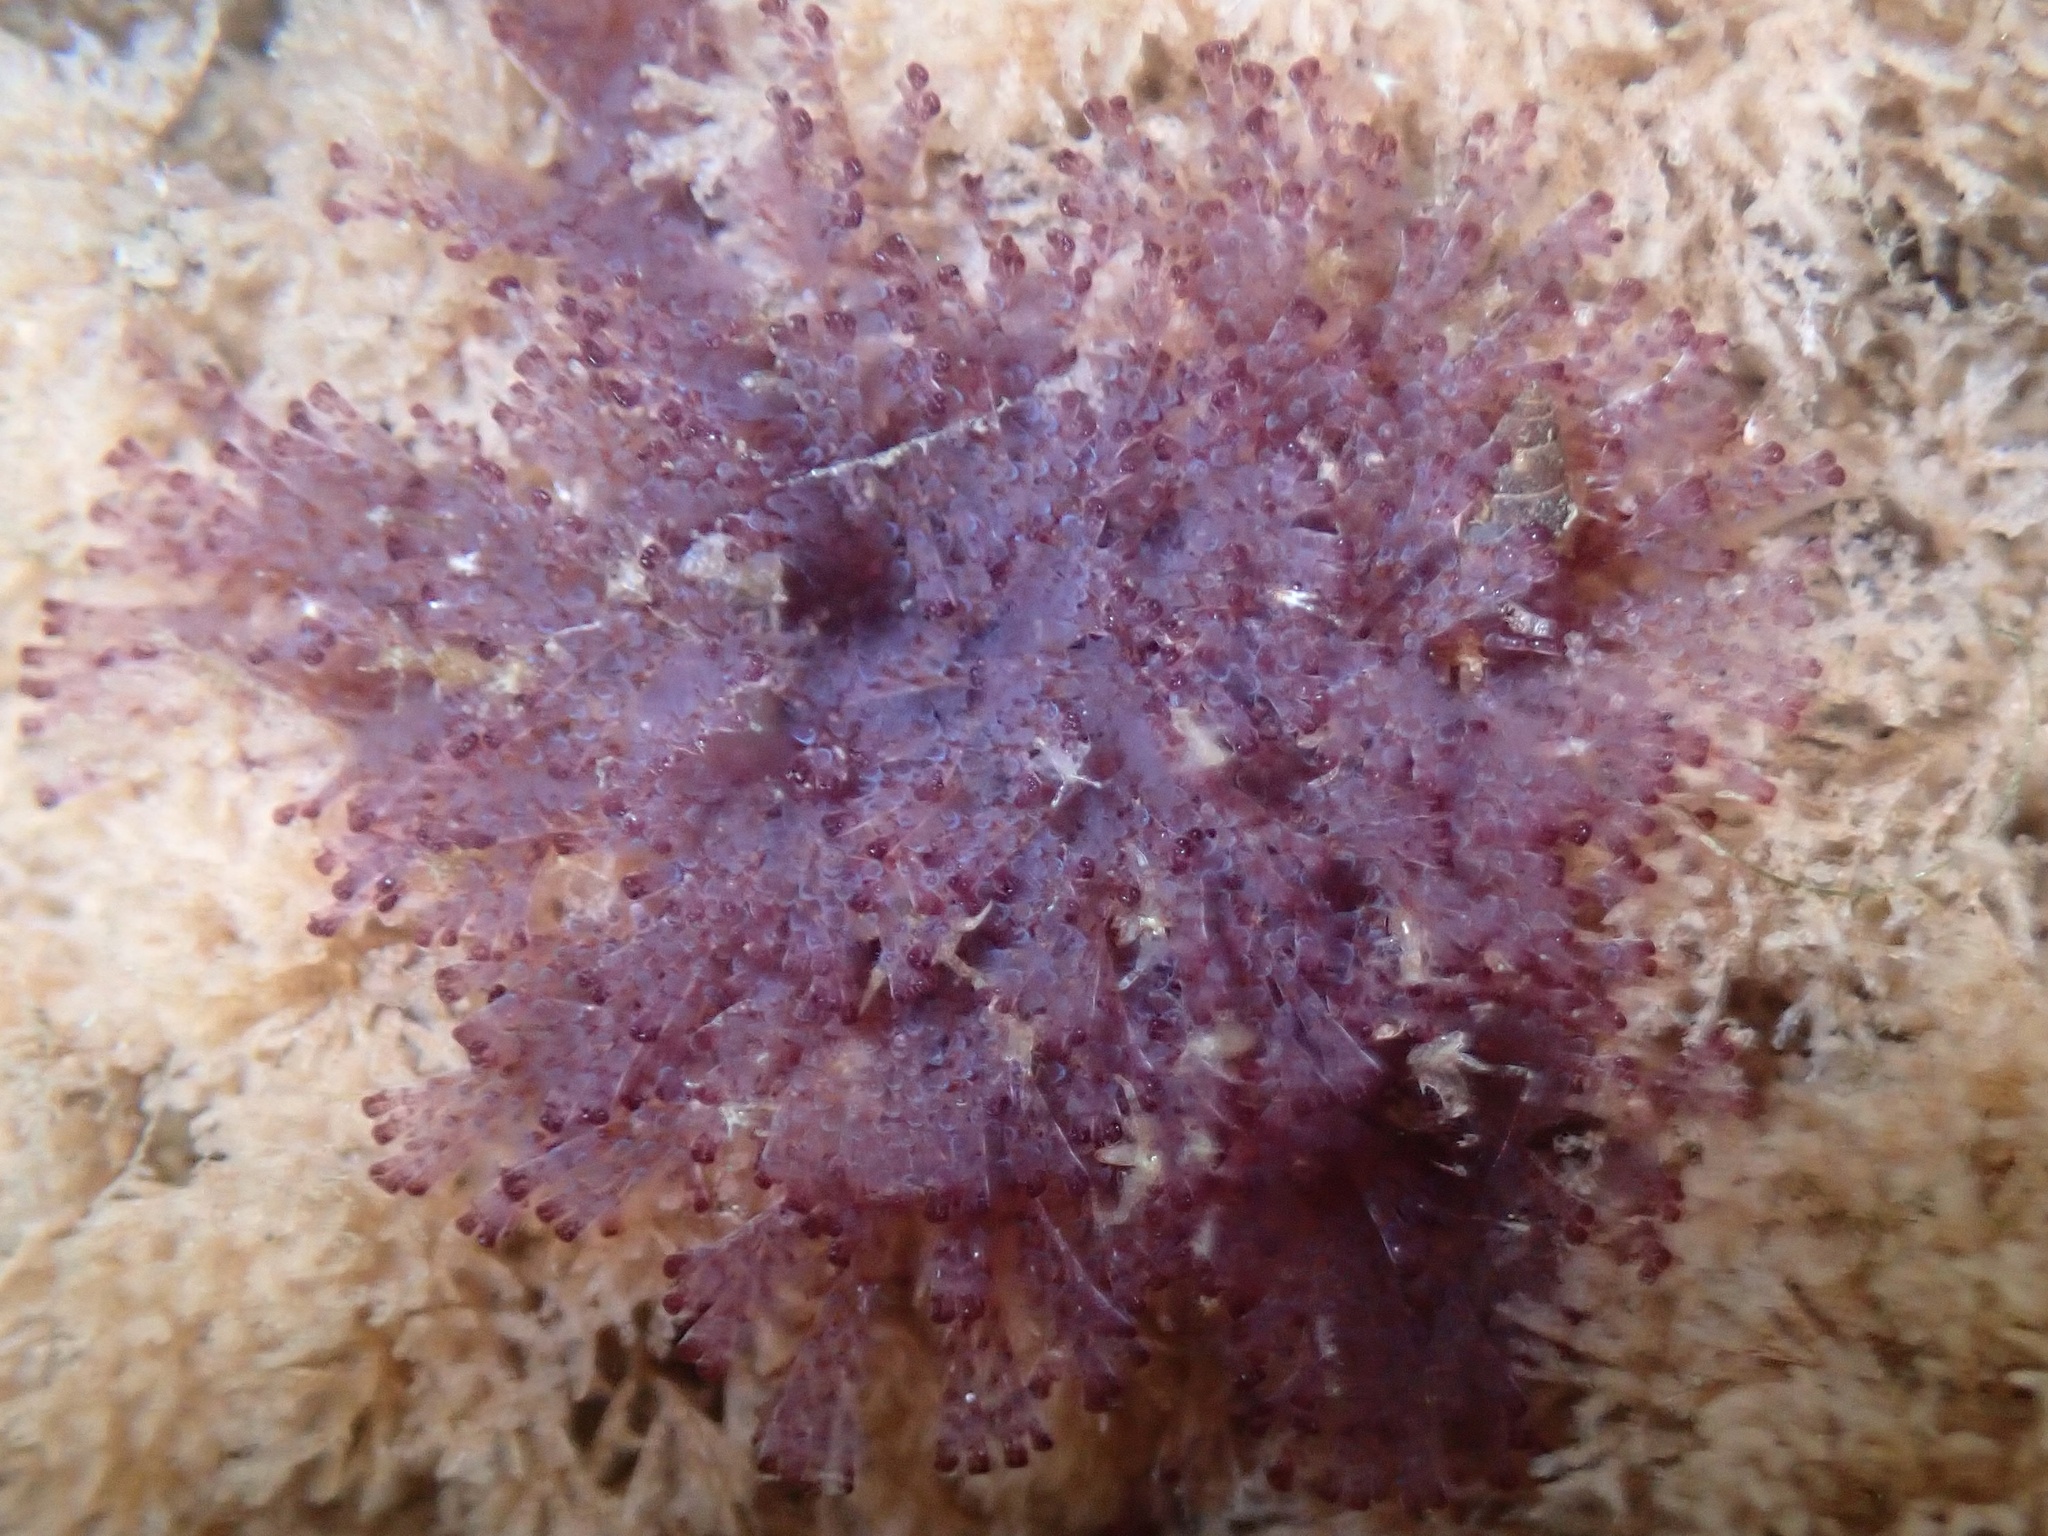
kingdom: Animalia
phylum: Bryozoa
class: Gymnolaemata
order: Cheilostomatida
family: Bugulidae
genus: Bugula
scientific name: Bugula neritina
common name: Brown bryozoan
